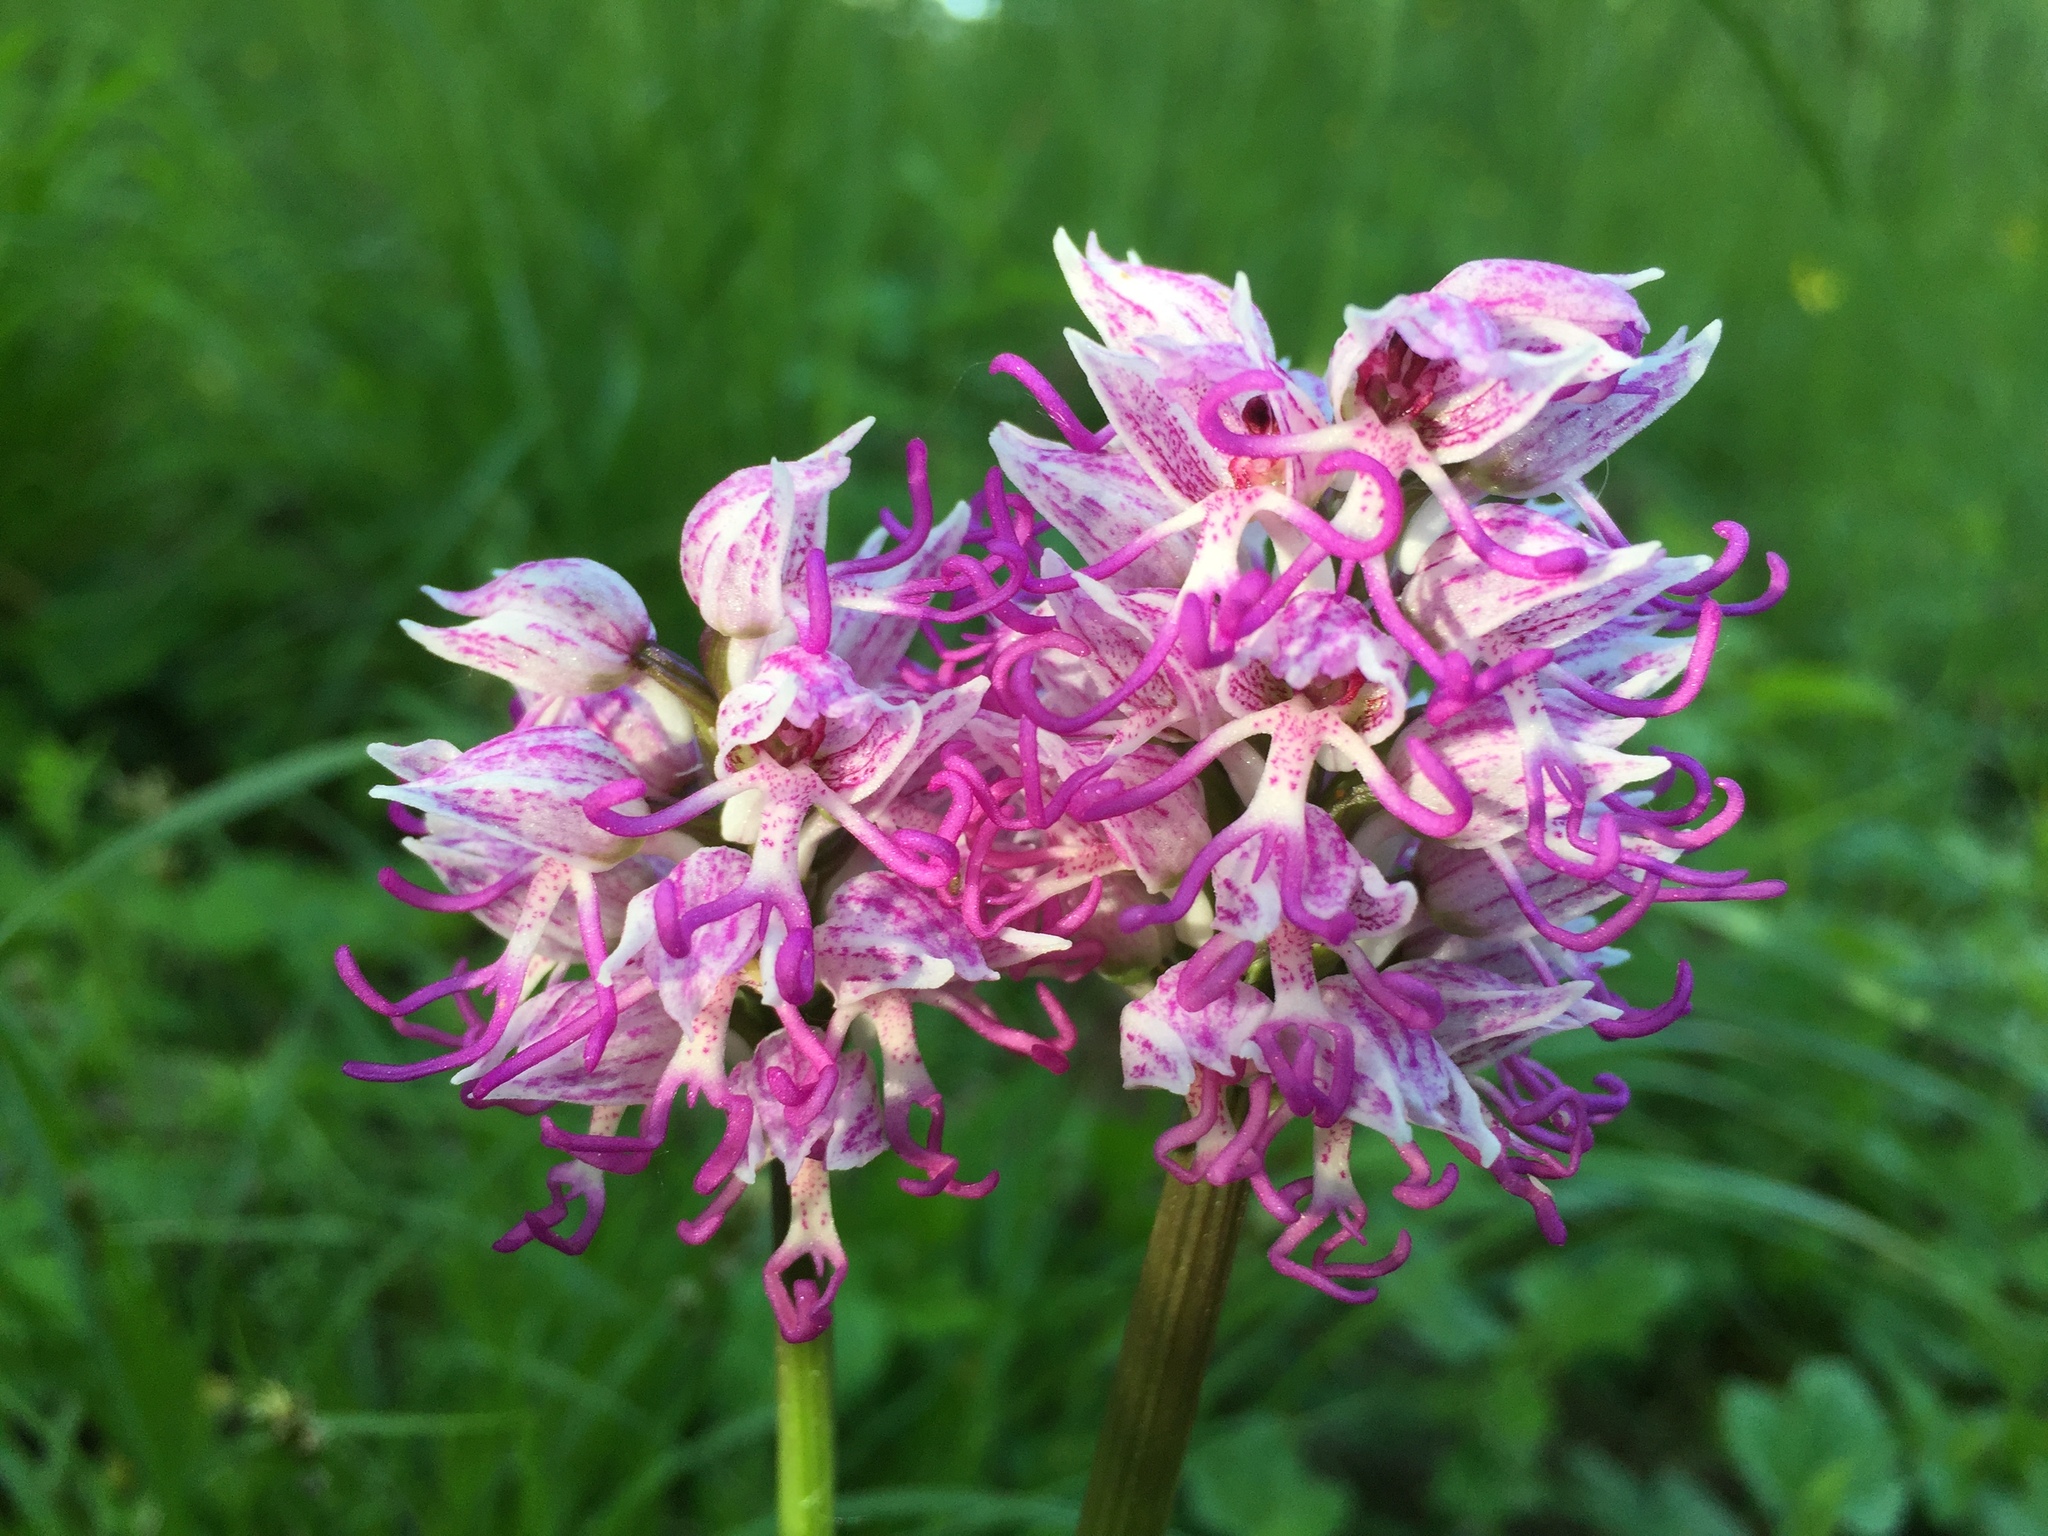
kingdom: Plantae
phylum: Tracheophyta
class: Liliopsida
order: Asparagales
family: Orchidaceae
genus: Orchis
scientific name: Orchis simia
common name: Monkey orchid
